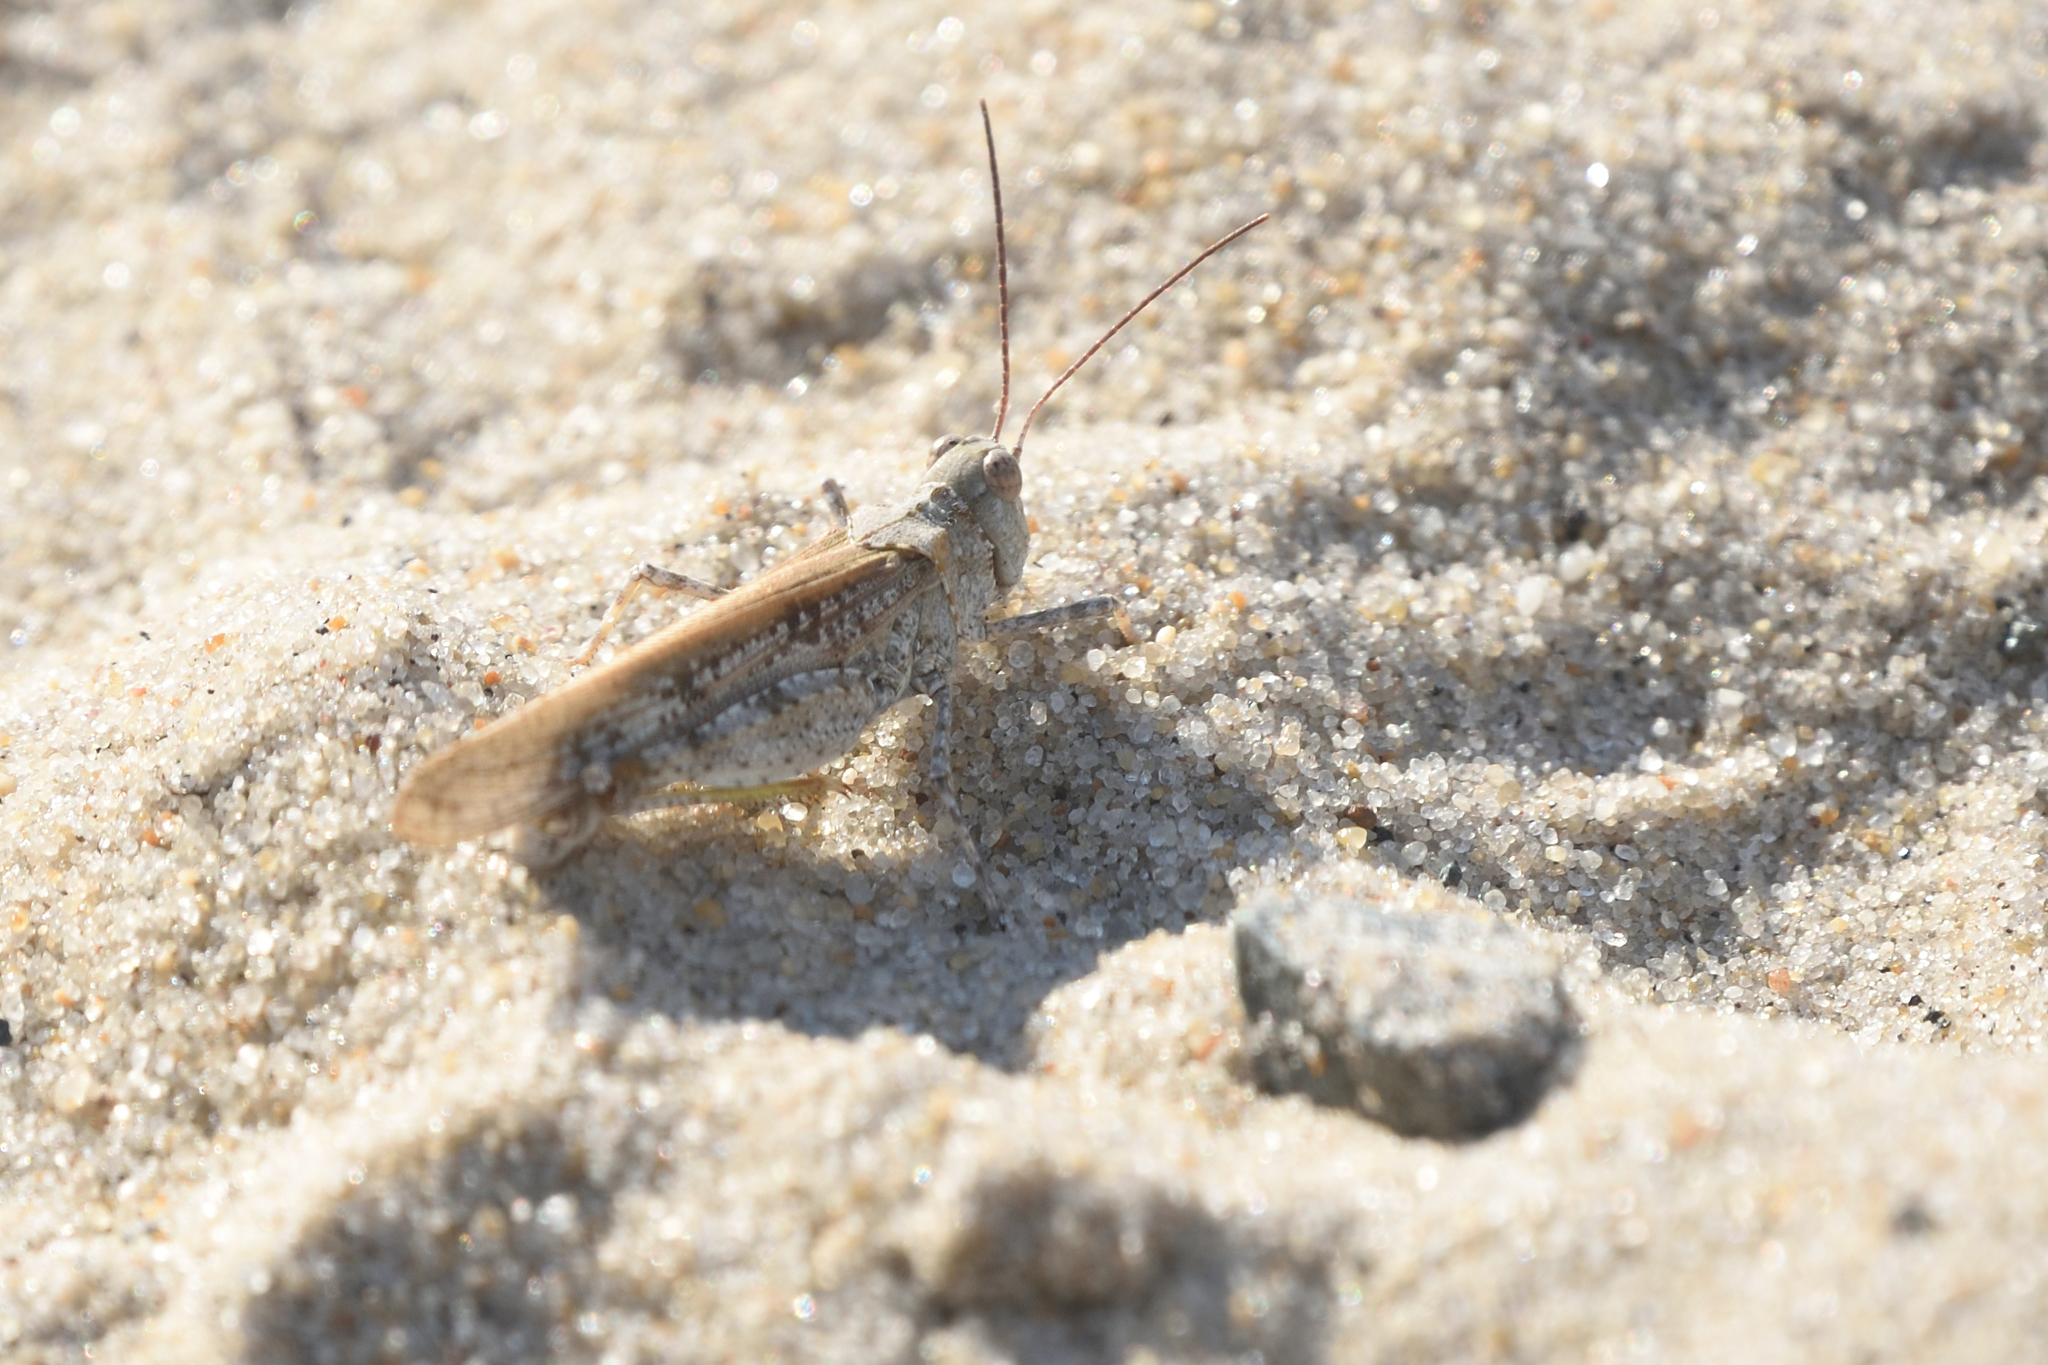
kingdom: Animalia
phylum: Arthropoda
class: Insecta
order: Orthoptera
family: Acrididae
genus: Trimerotropis
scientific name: Trimerotropis maritima
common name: Seaside locust
